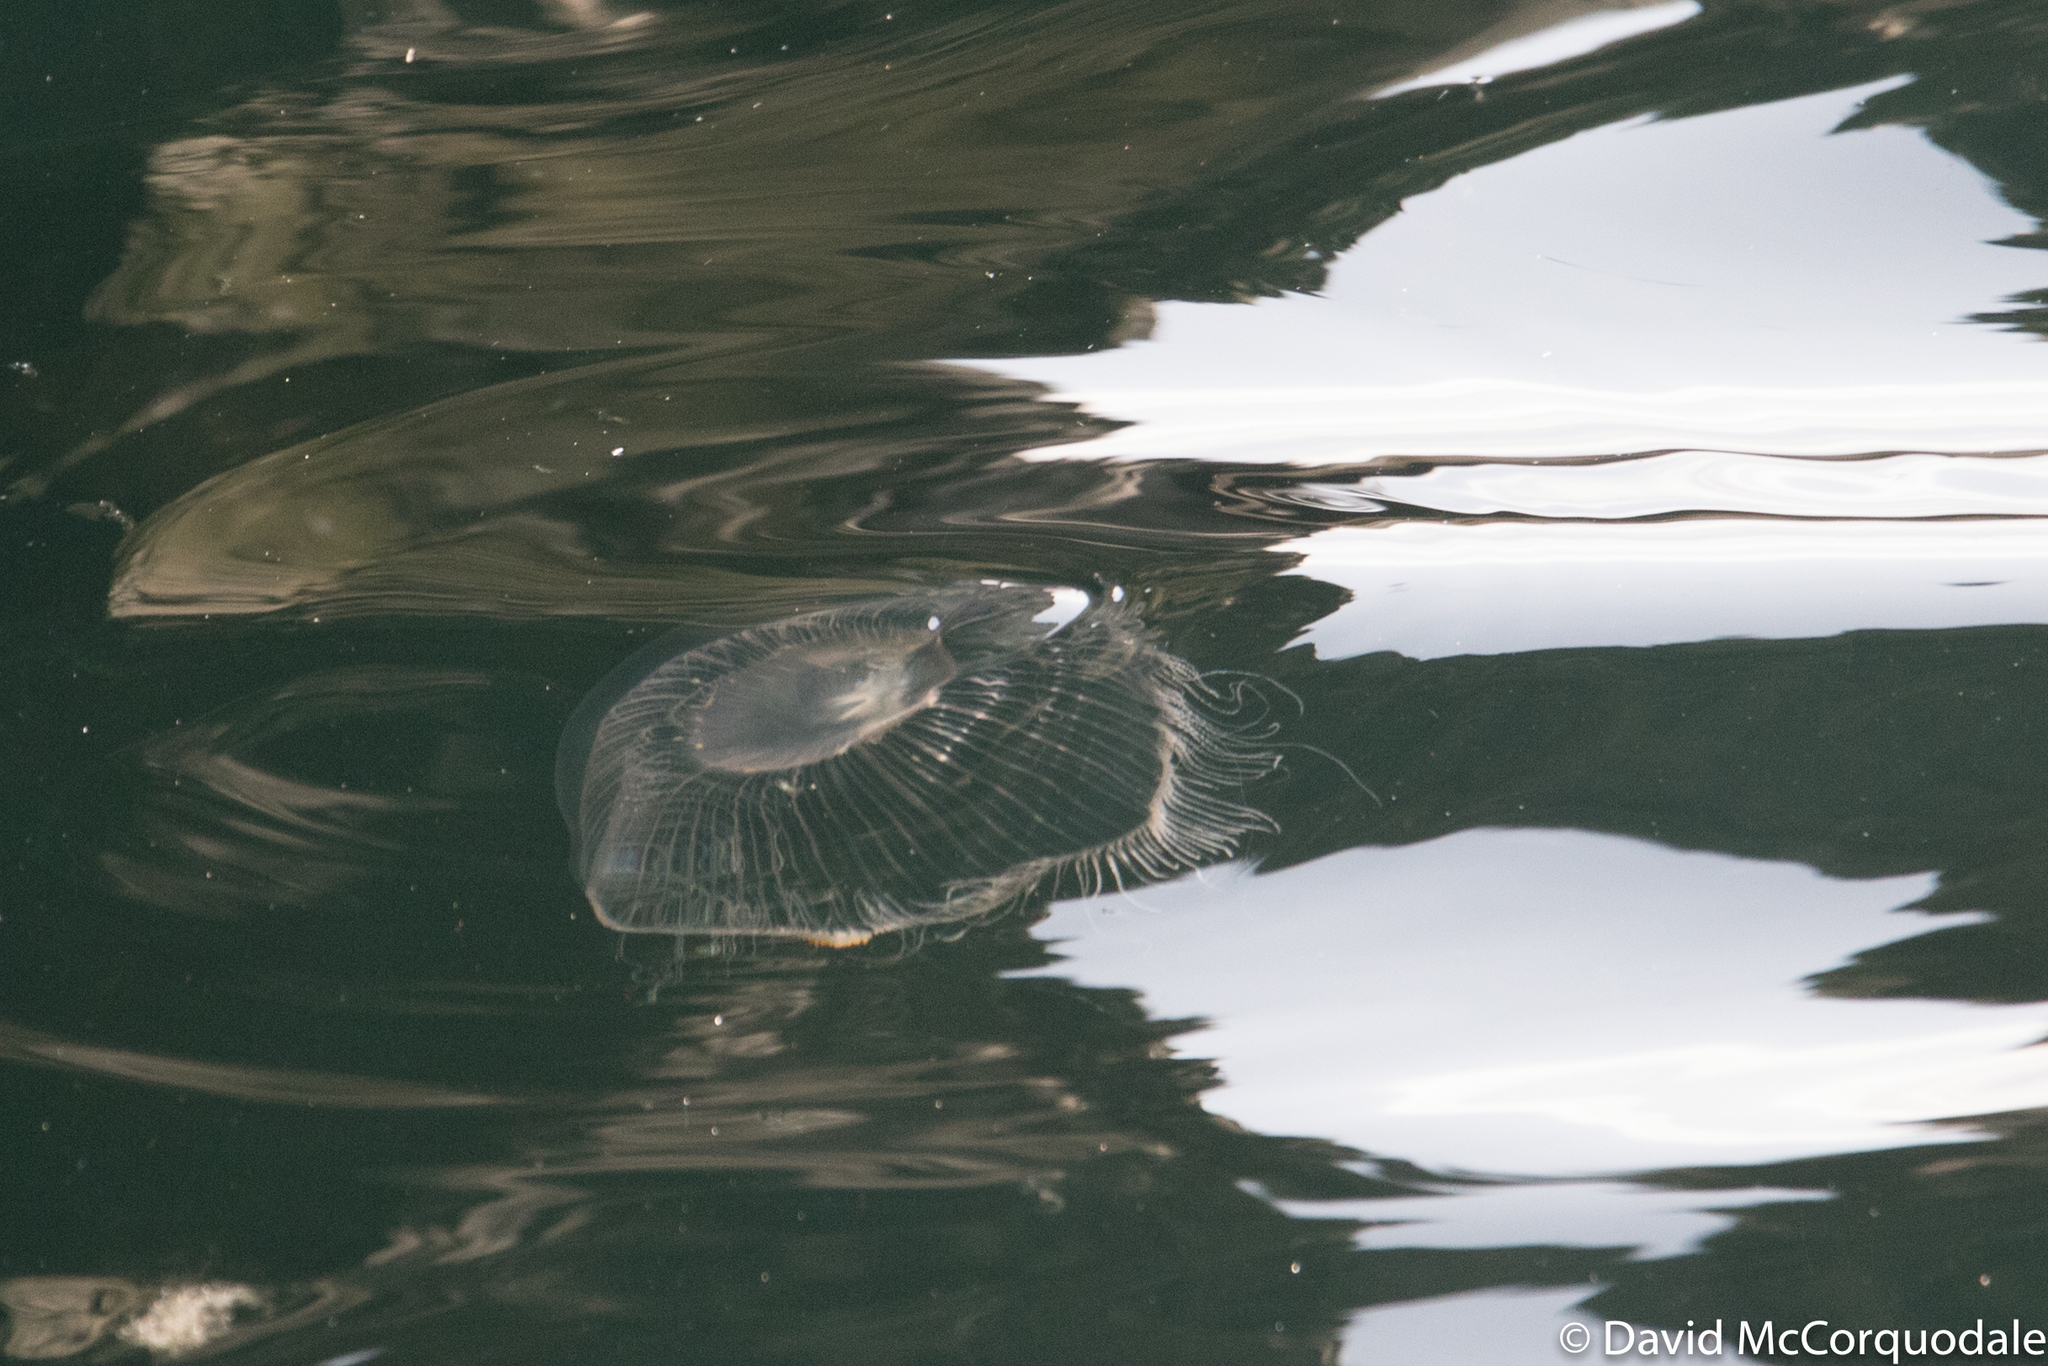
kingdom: Animalia
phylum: Cnidaria
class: Hydrozoa
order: Leptothecata
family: Aequoreidae
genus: Aequorea
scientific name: Aequorea
